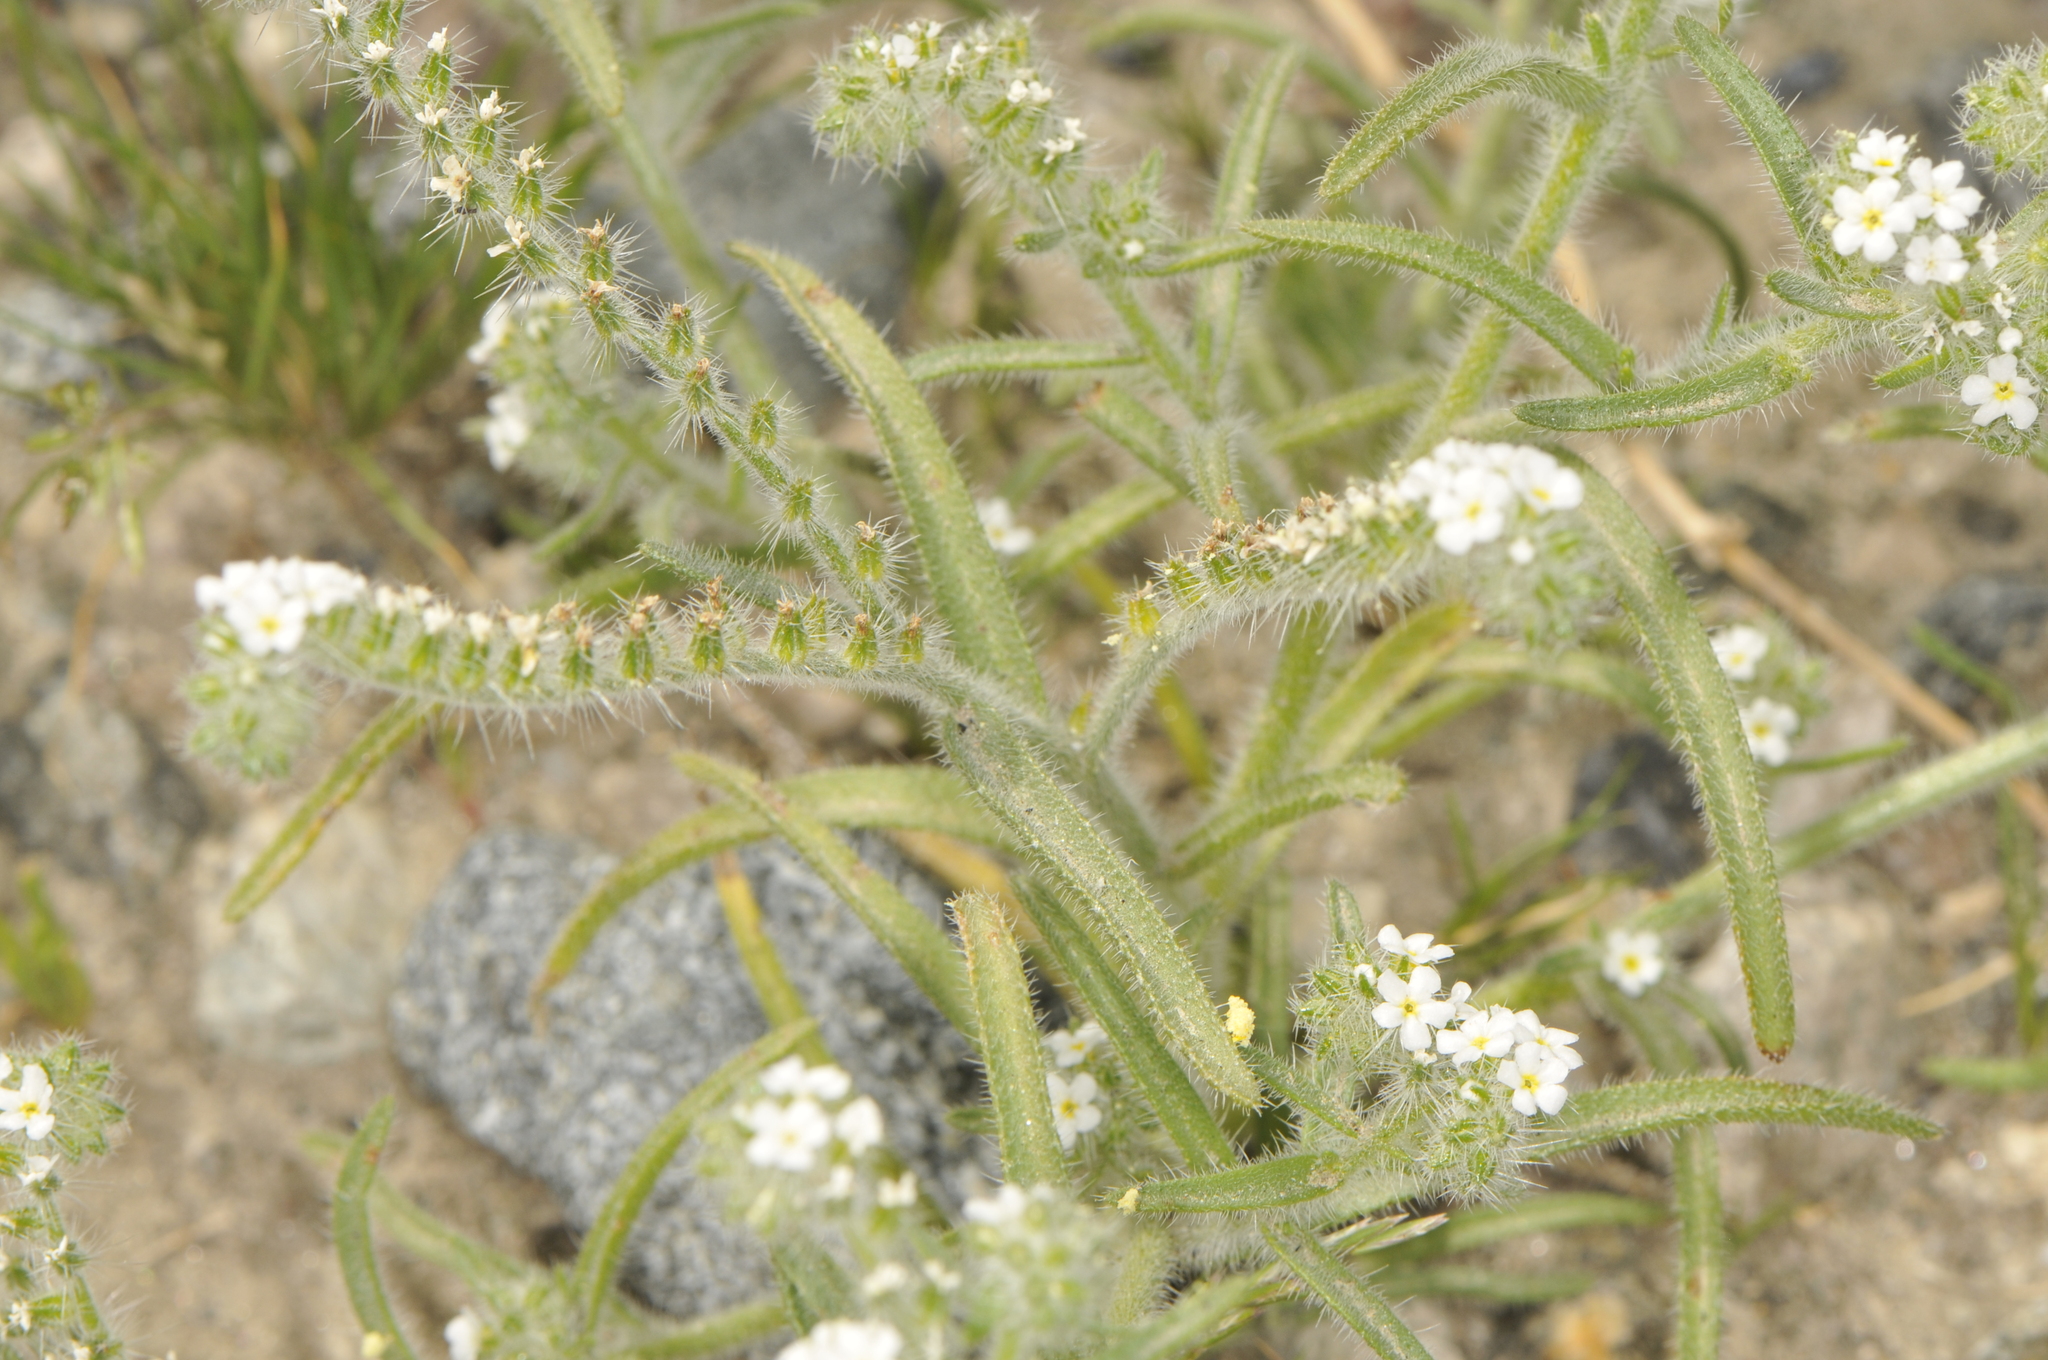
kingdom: Plantae
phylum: Tracheophyta
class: Magnoliopsida
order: Boraginales
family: Boraginaceae
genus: Johnstonella
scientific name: Johnstonella angustifolia
